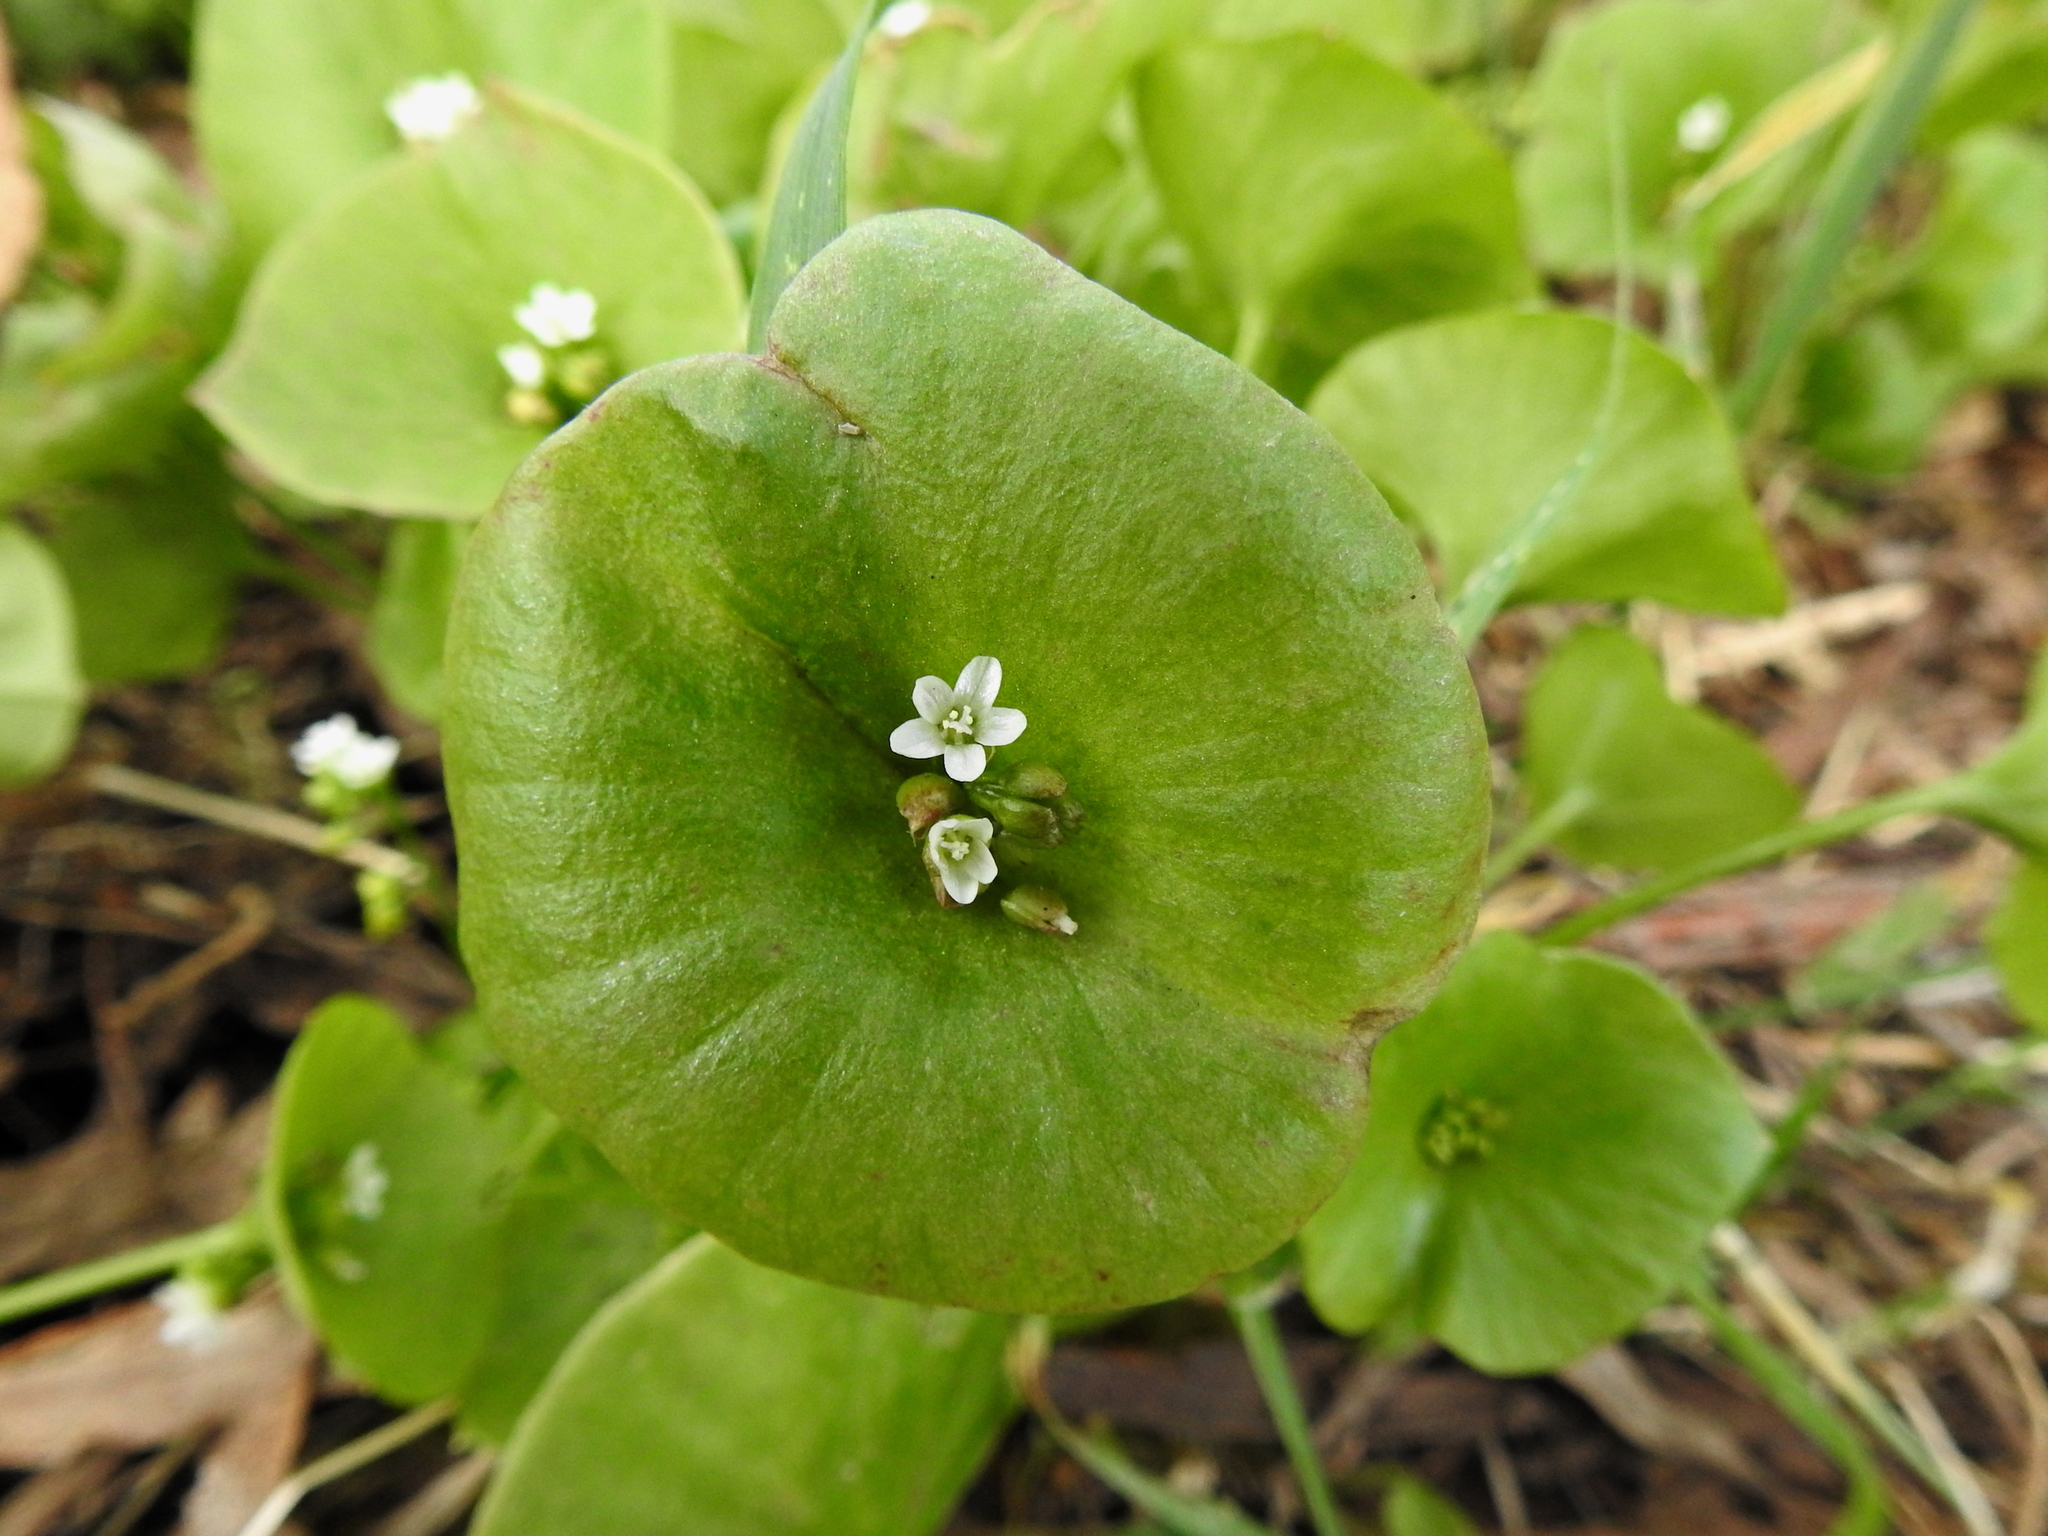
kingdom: Plantae
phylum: Tracheophyta
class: Magnoliopsida
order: Caryophyllales
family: Montiaceae
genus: Claytonia
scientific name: Claytonia perfoliata
